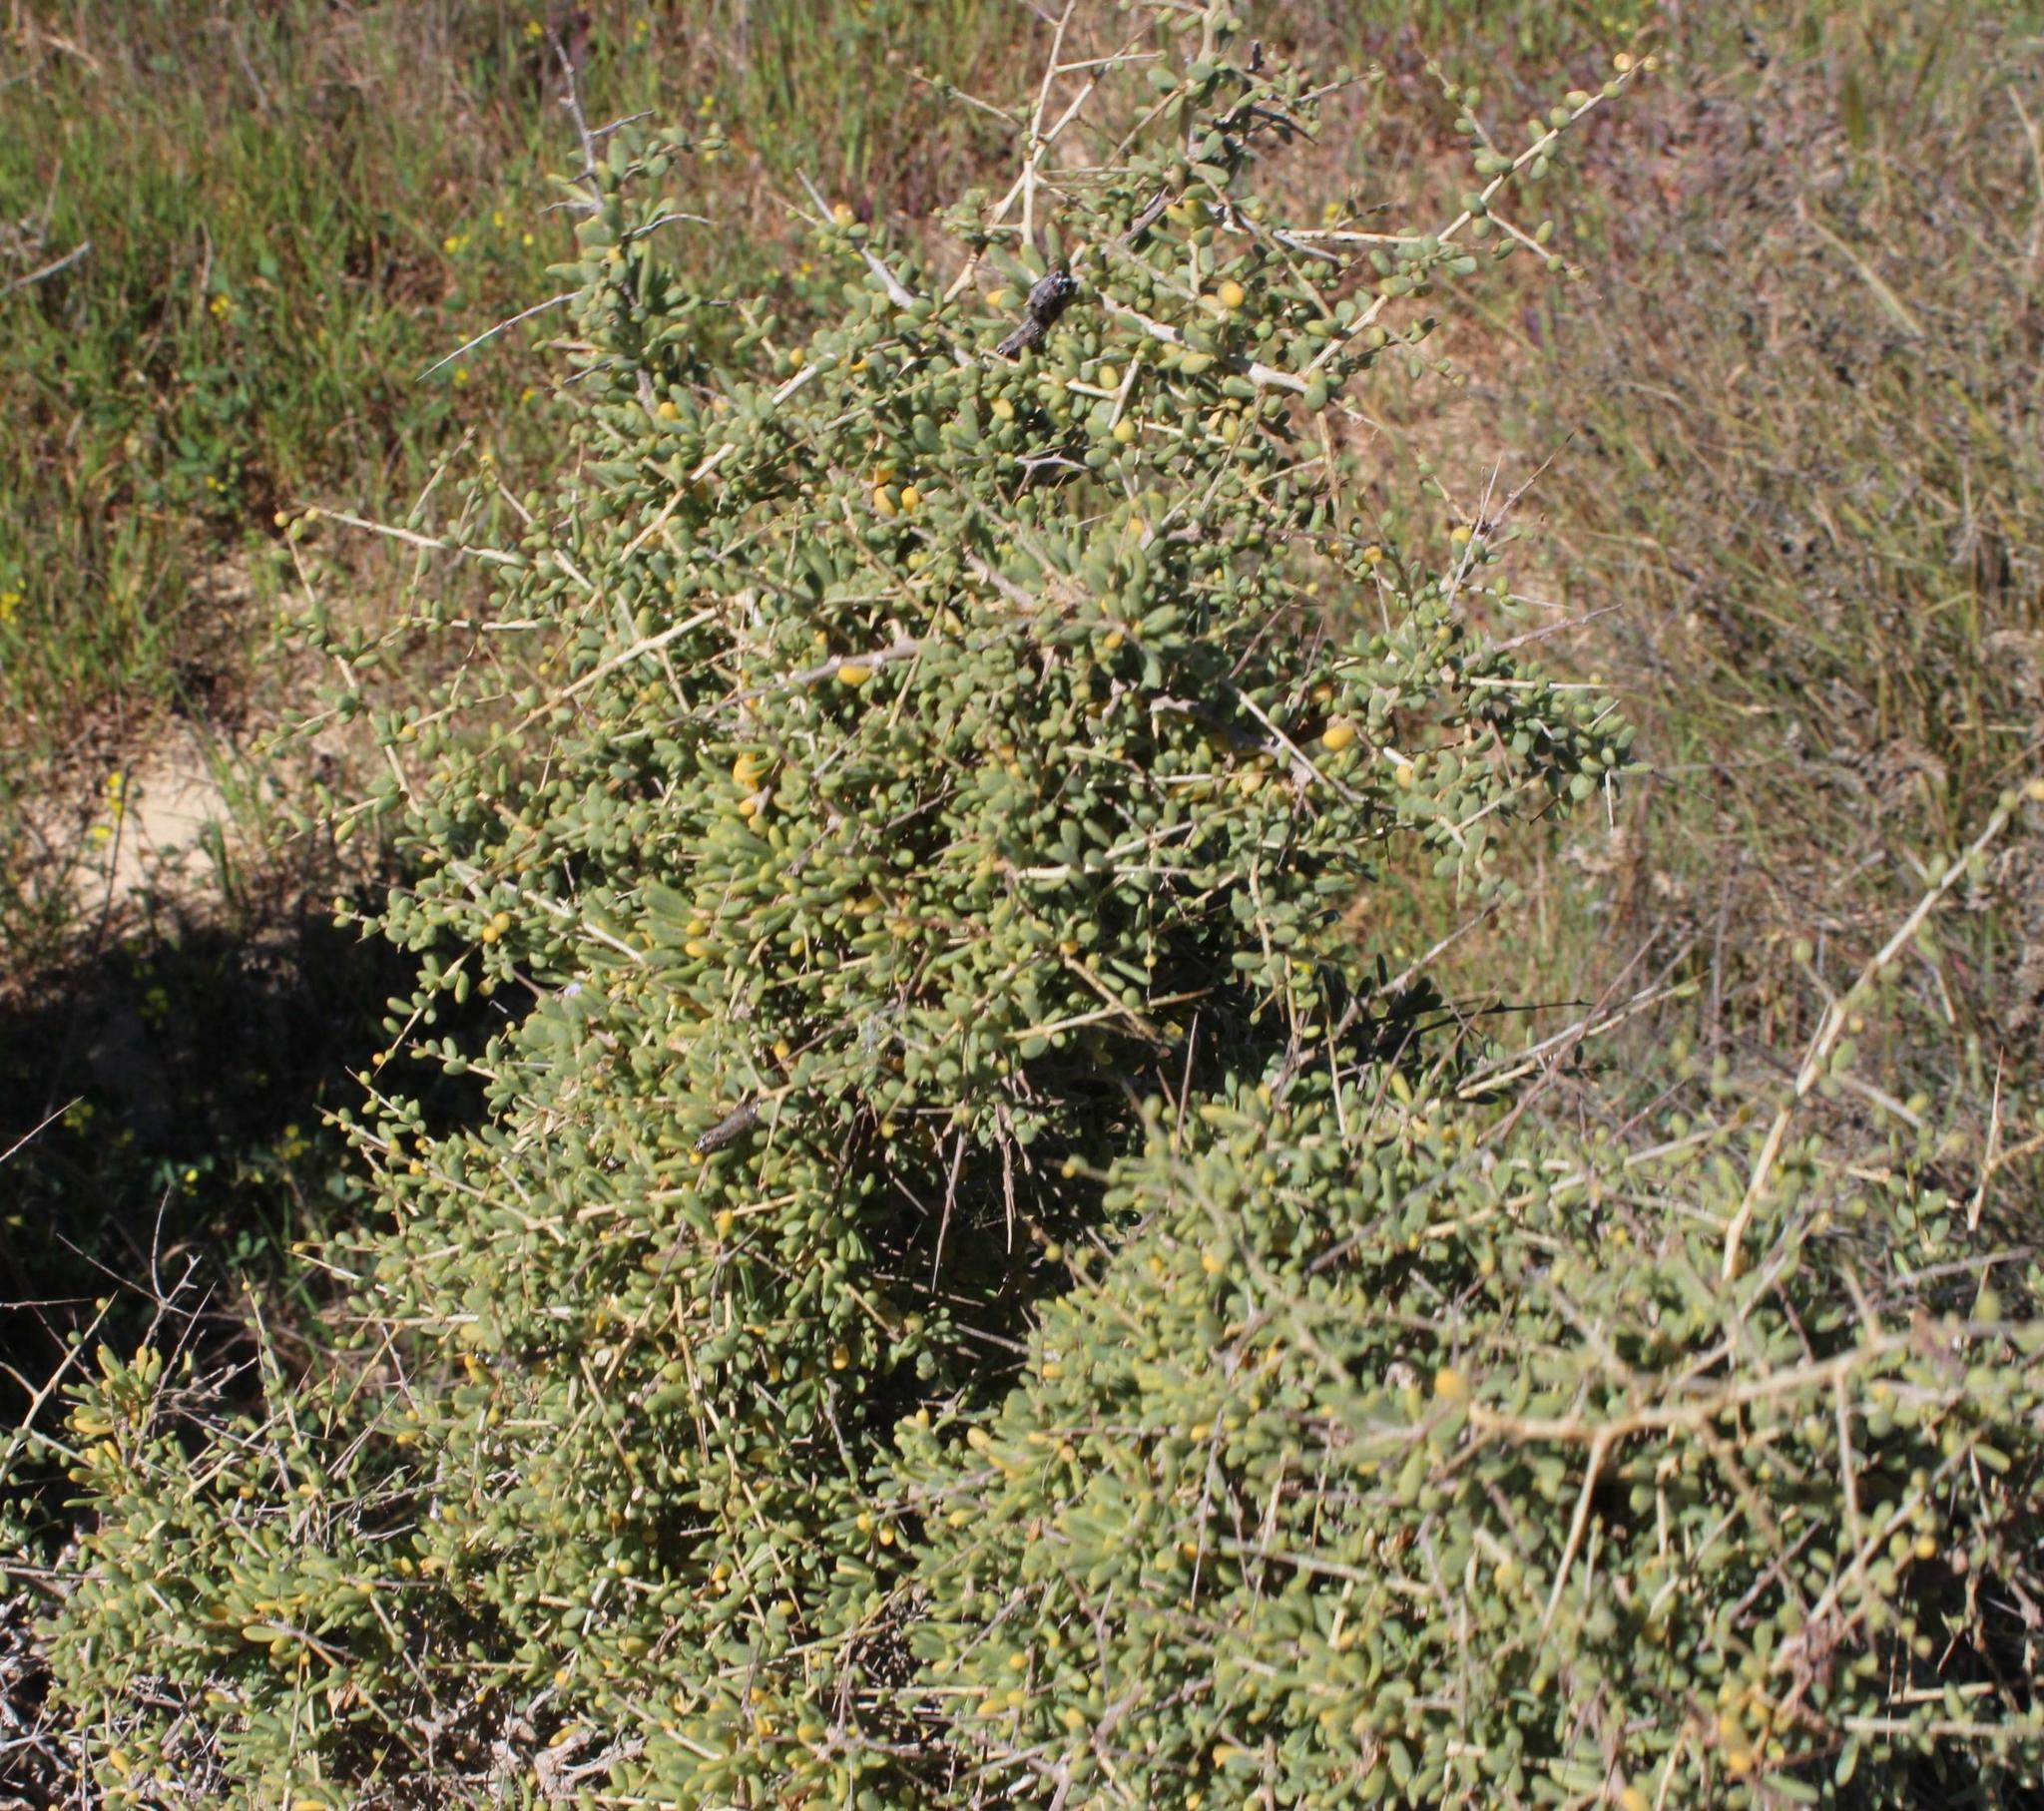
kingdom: Plantae
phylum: Tracheophyta
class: Magnoliopsida
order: Solanales
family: Solanaceae
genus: Lycium
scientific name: Lycium decumbens
